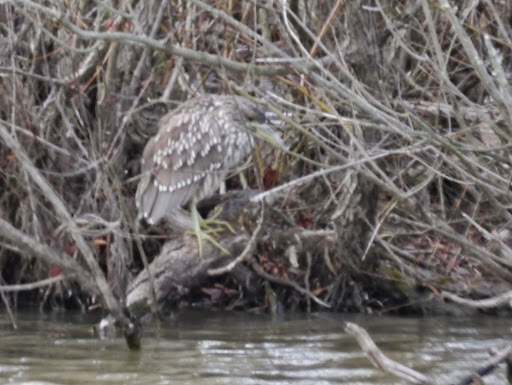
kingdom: Animalia
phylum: Chordata
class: Aves
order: Pelecaniformes
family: Ardeidae
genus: Nycticorax
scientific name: Nycticorax nycticorax
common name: Black-crowned night heron
